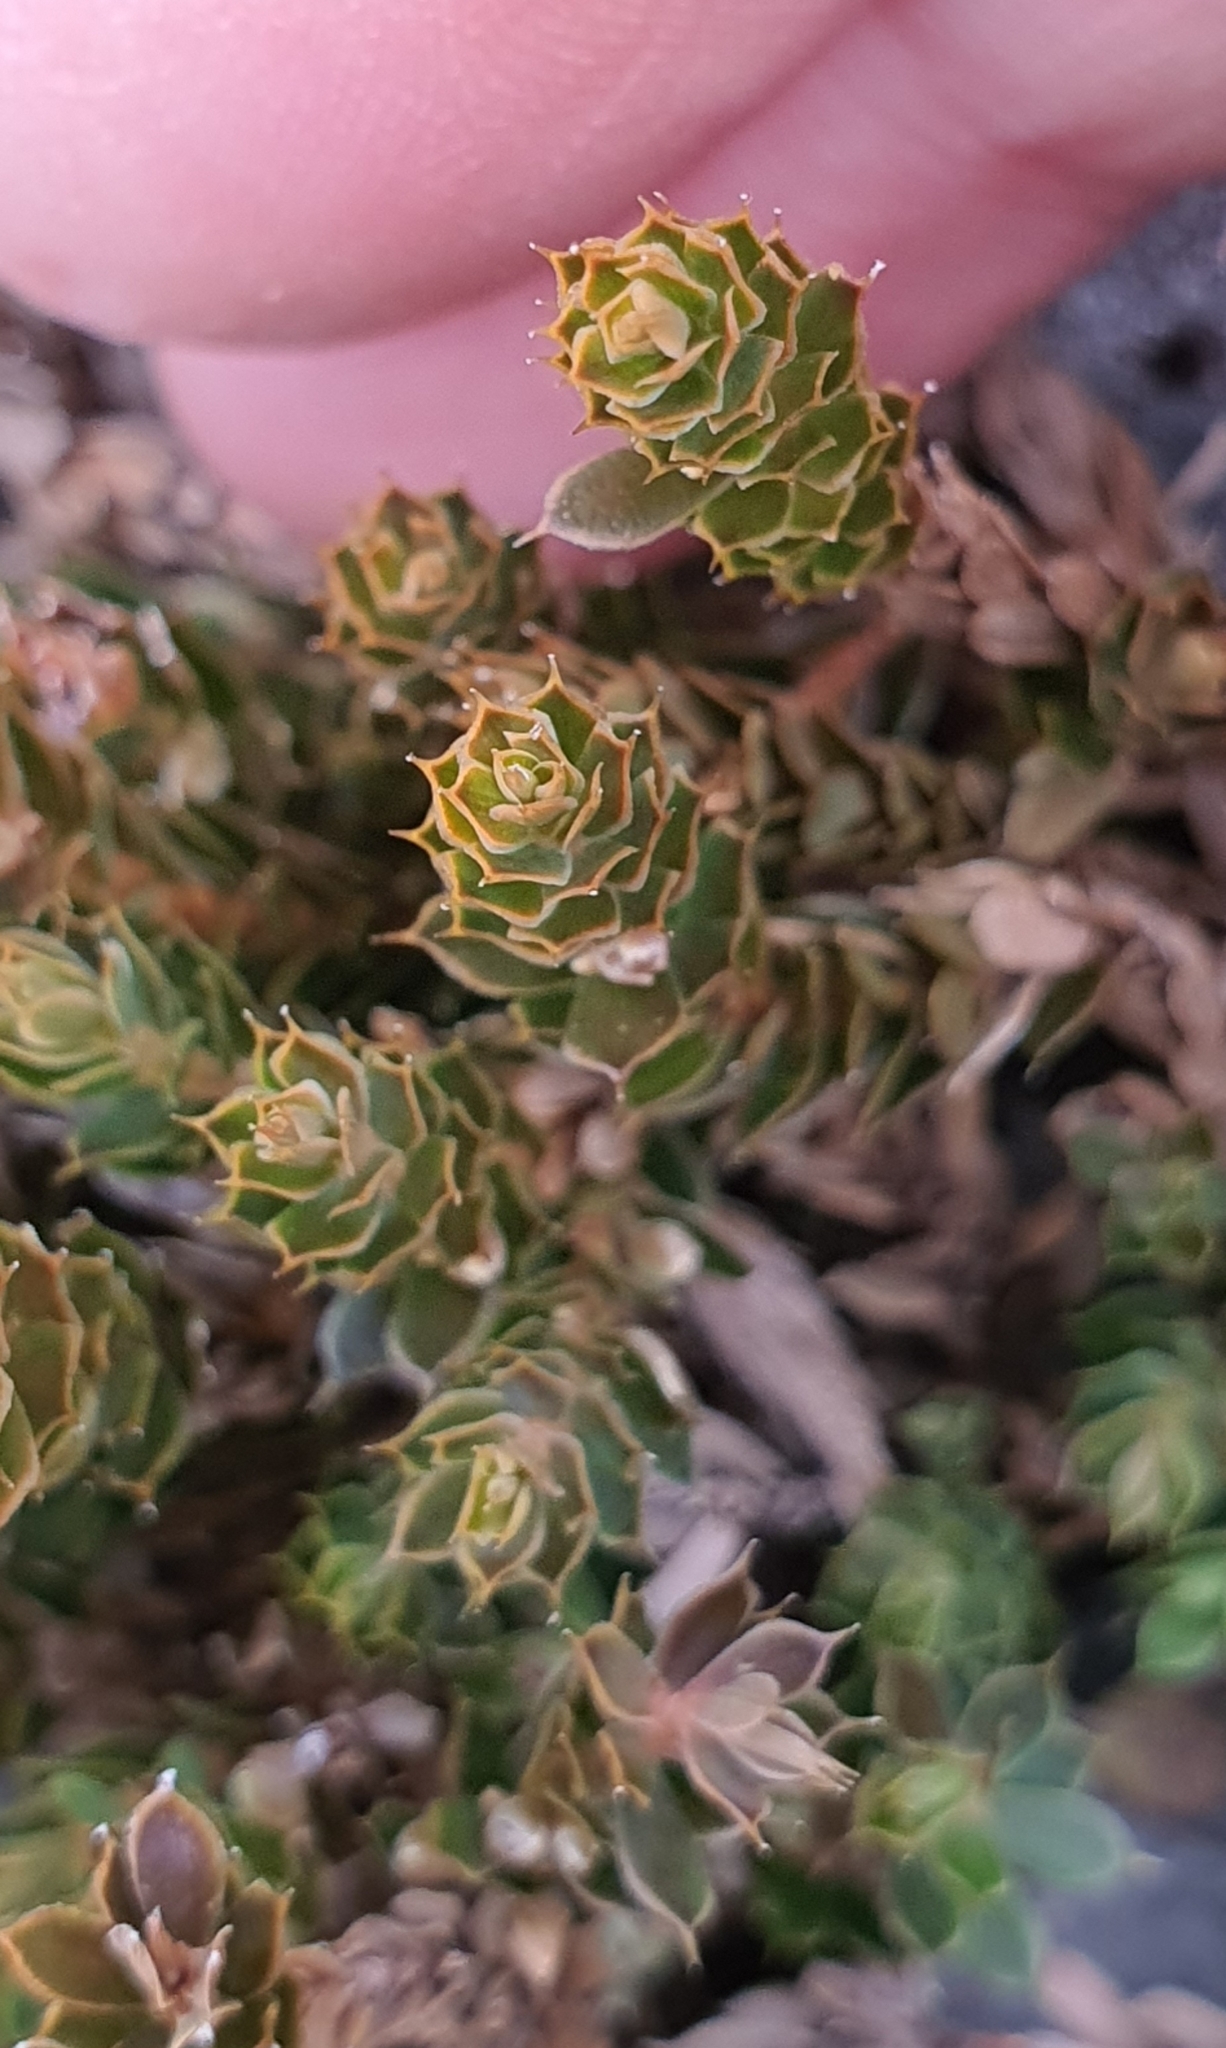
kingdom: Plantae
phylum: Tracheophyta
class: Magnoliopsida
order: Ericales
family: Ericaceae
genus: Styphelia
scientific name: Styphelia nesophila
